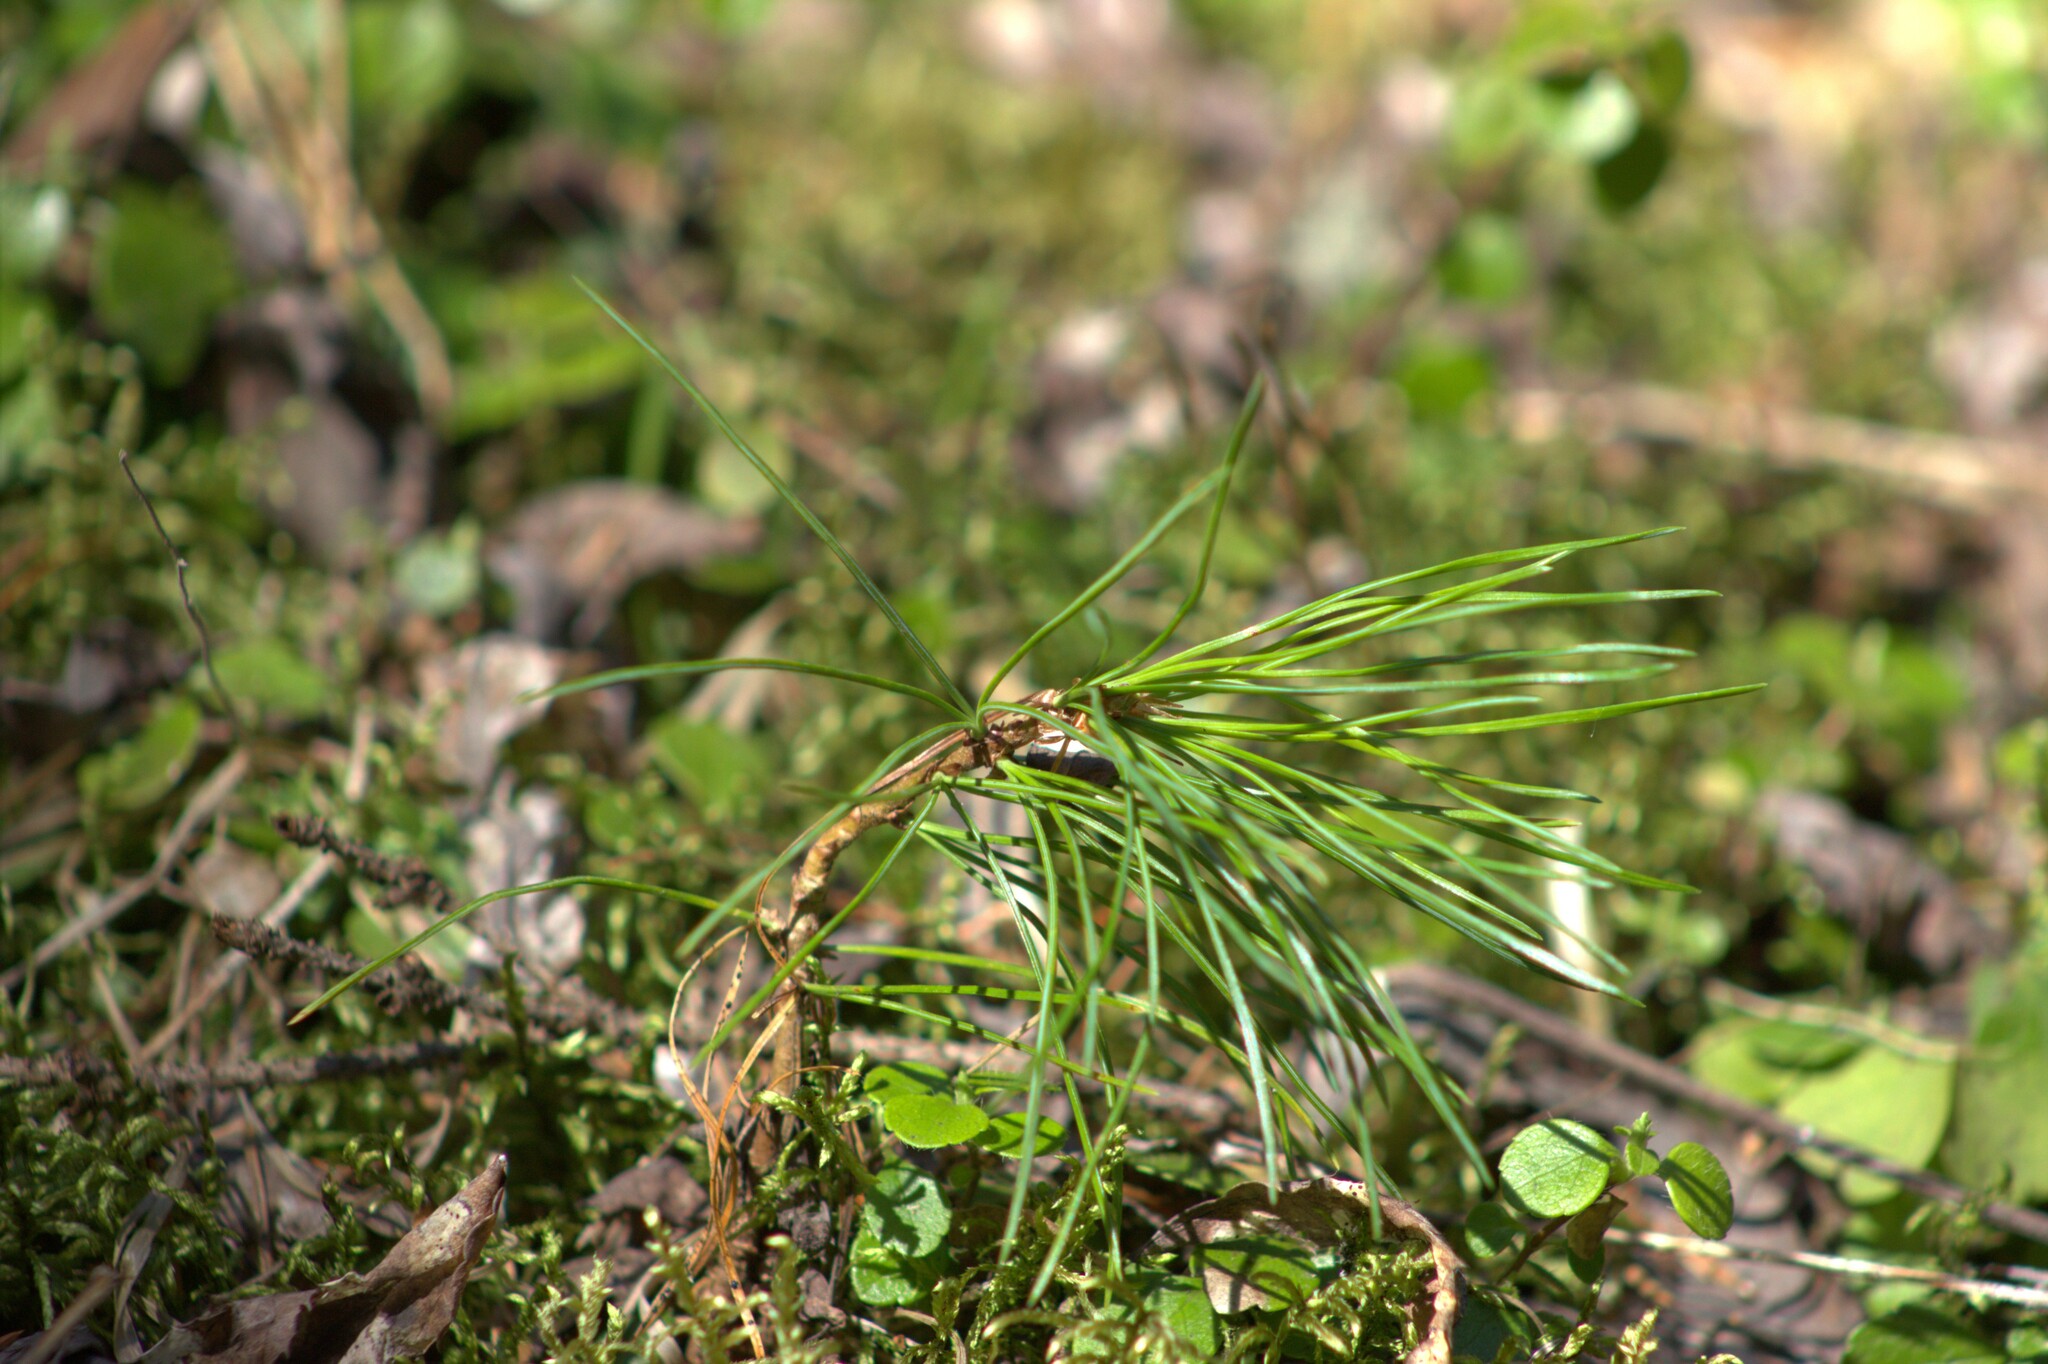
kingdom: Plantae
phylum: Tracheophyta
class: Pinopsida
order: Pinales
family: Pinaceae
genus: Pinus
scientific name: Pinus sibirica
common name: Siberian pine
